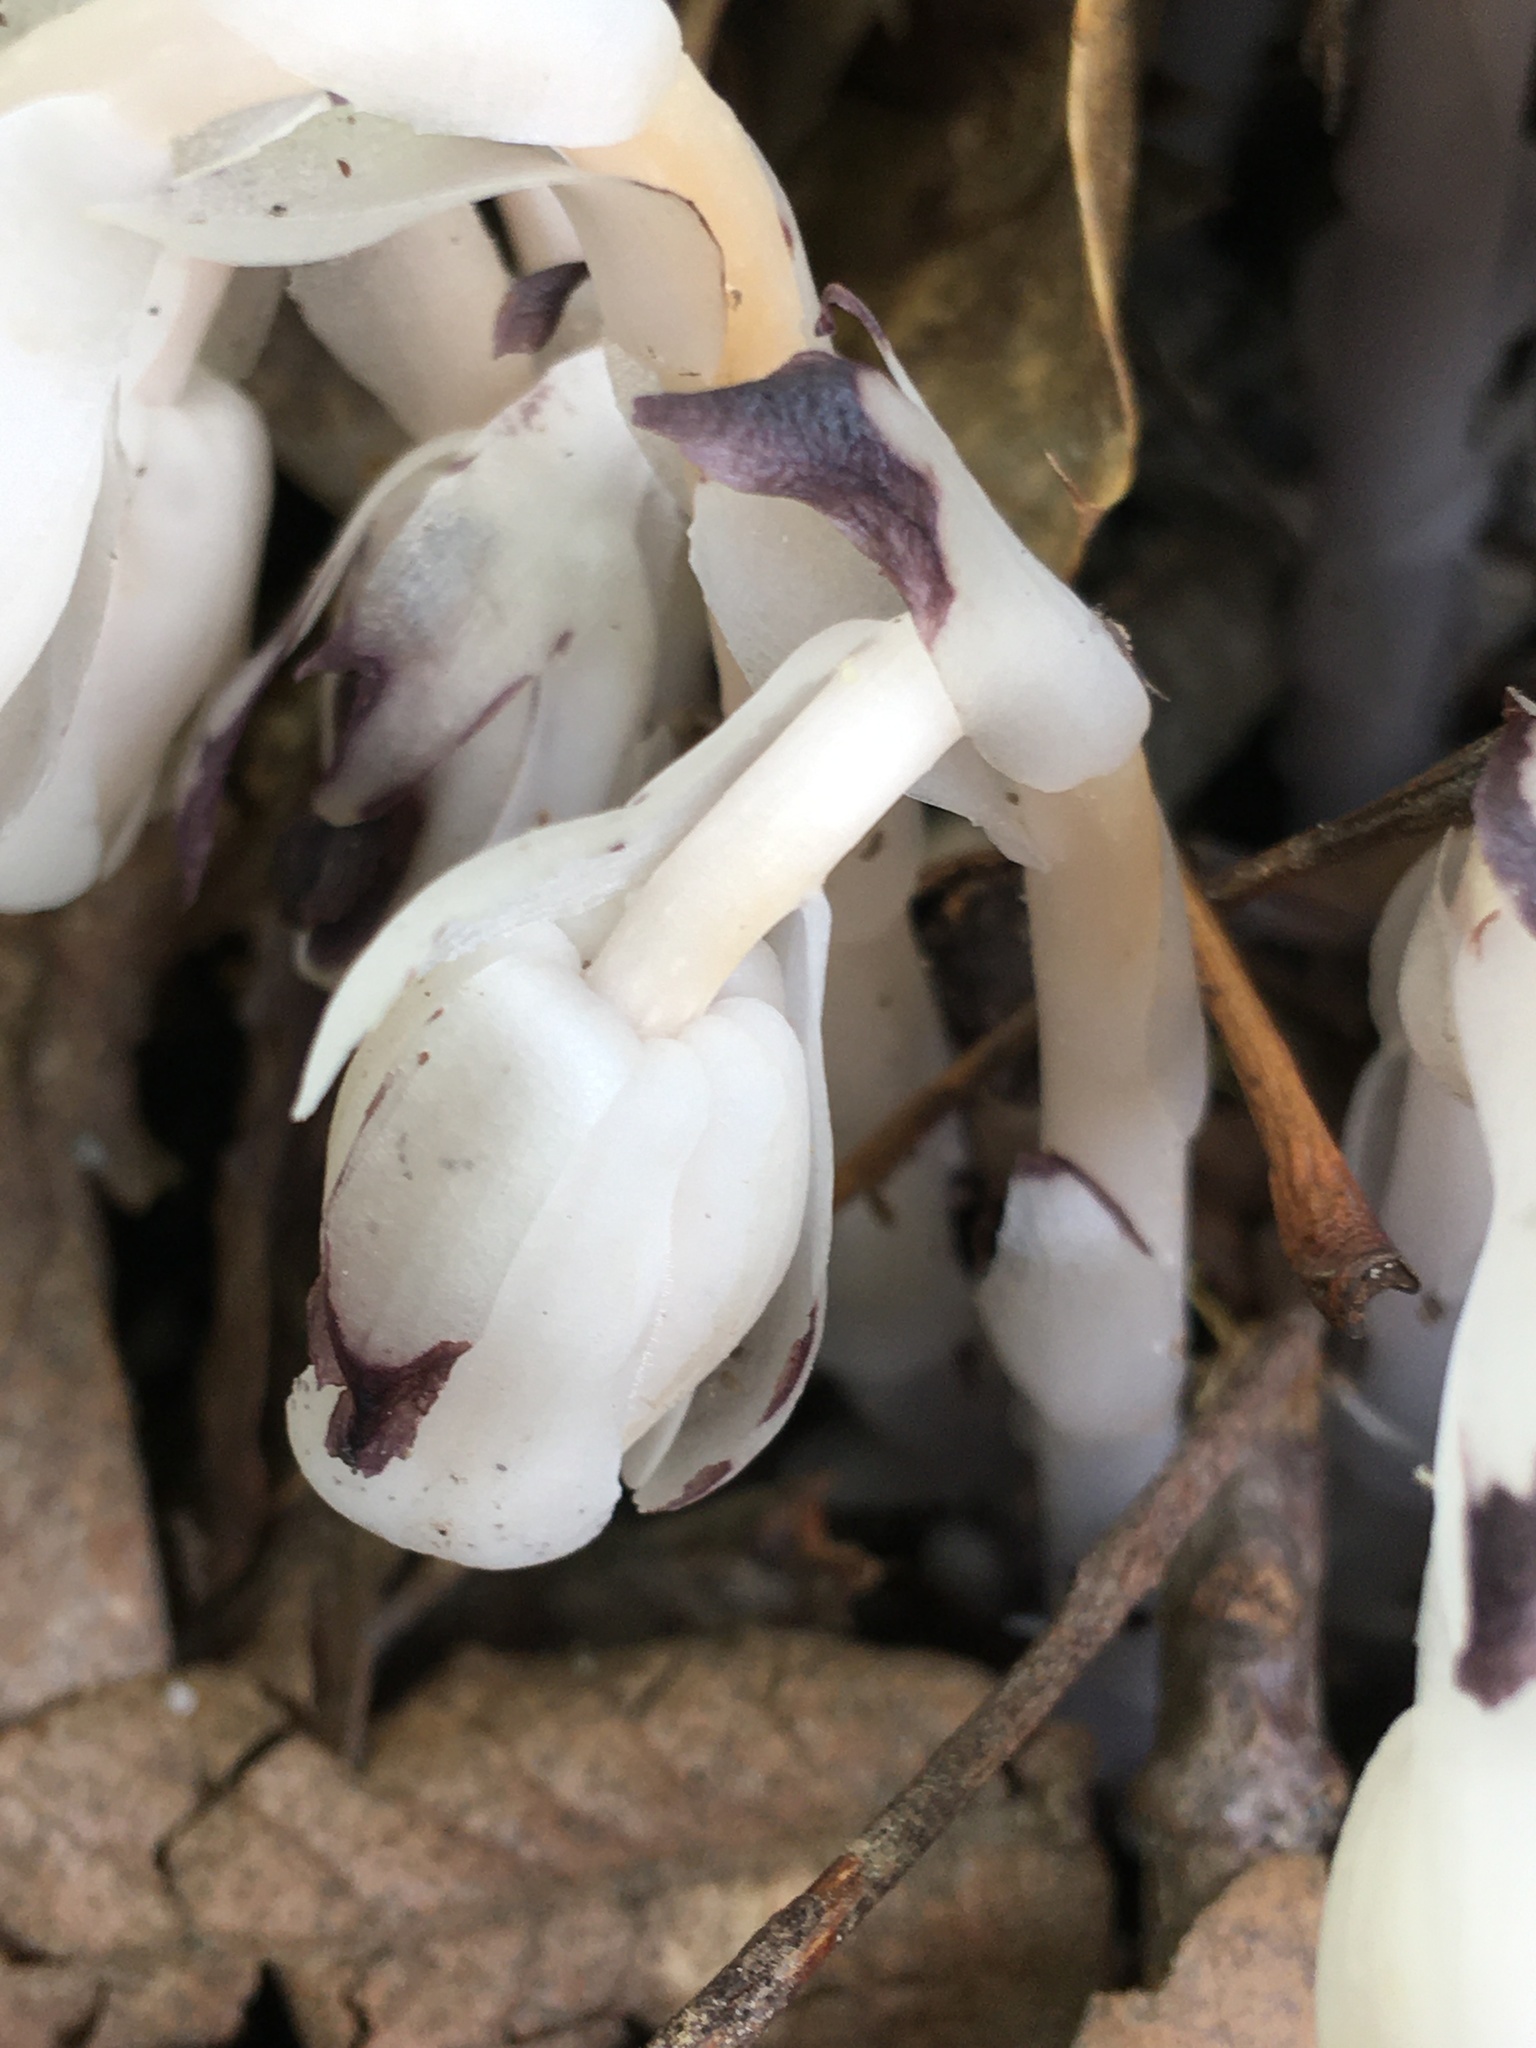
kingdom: Plantae
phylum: Tracheophyta
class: Magnoliopsida
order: Ericales
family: Ericaceae
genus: Monotropa
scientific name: Monotropa uniflora
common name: Convulsion root
